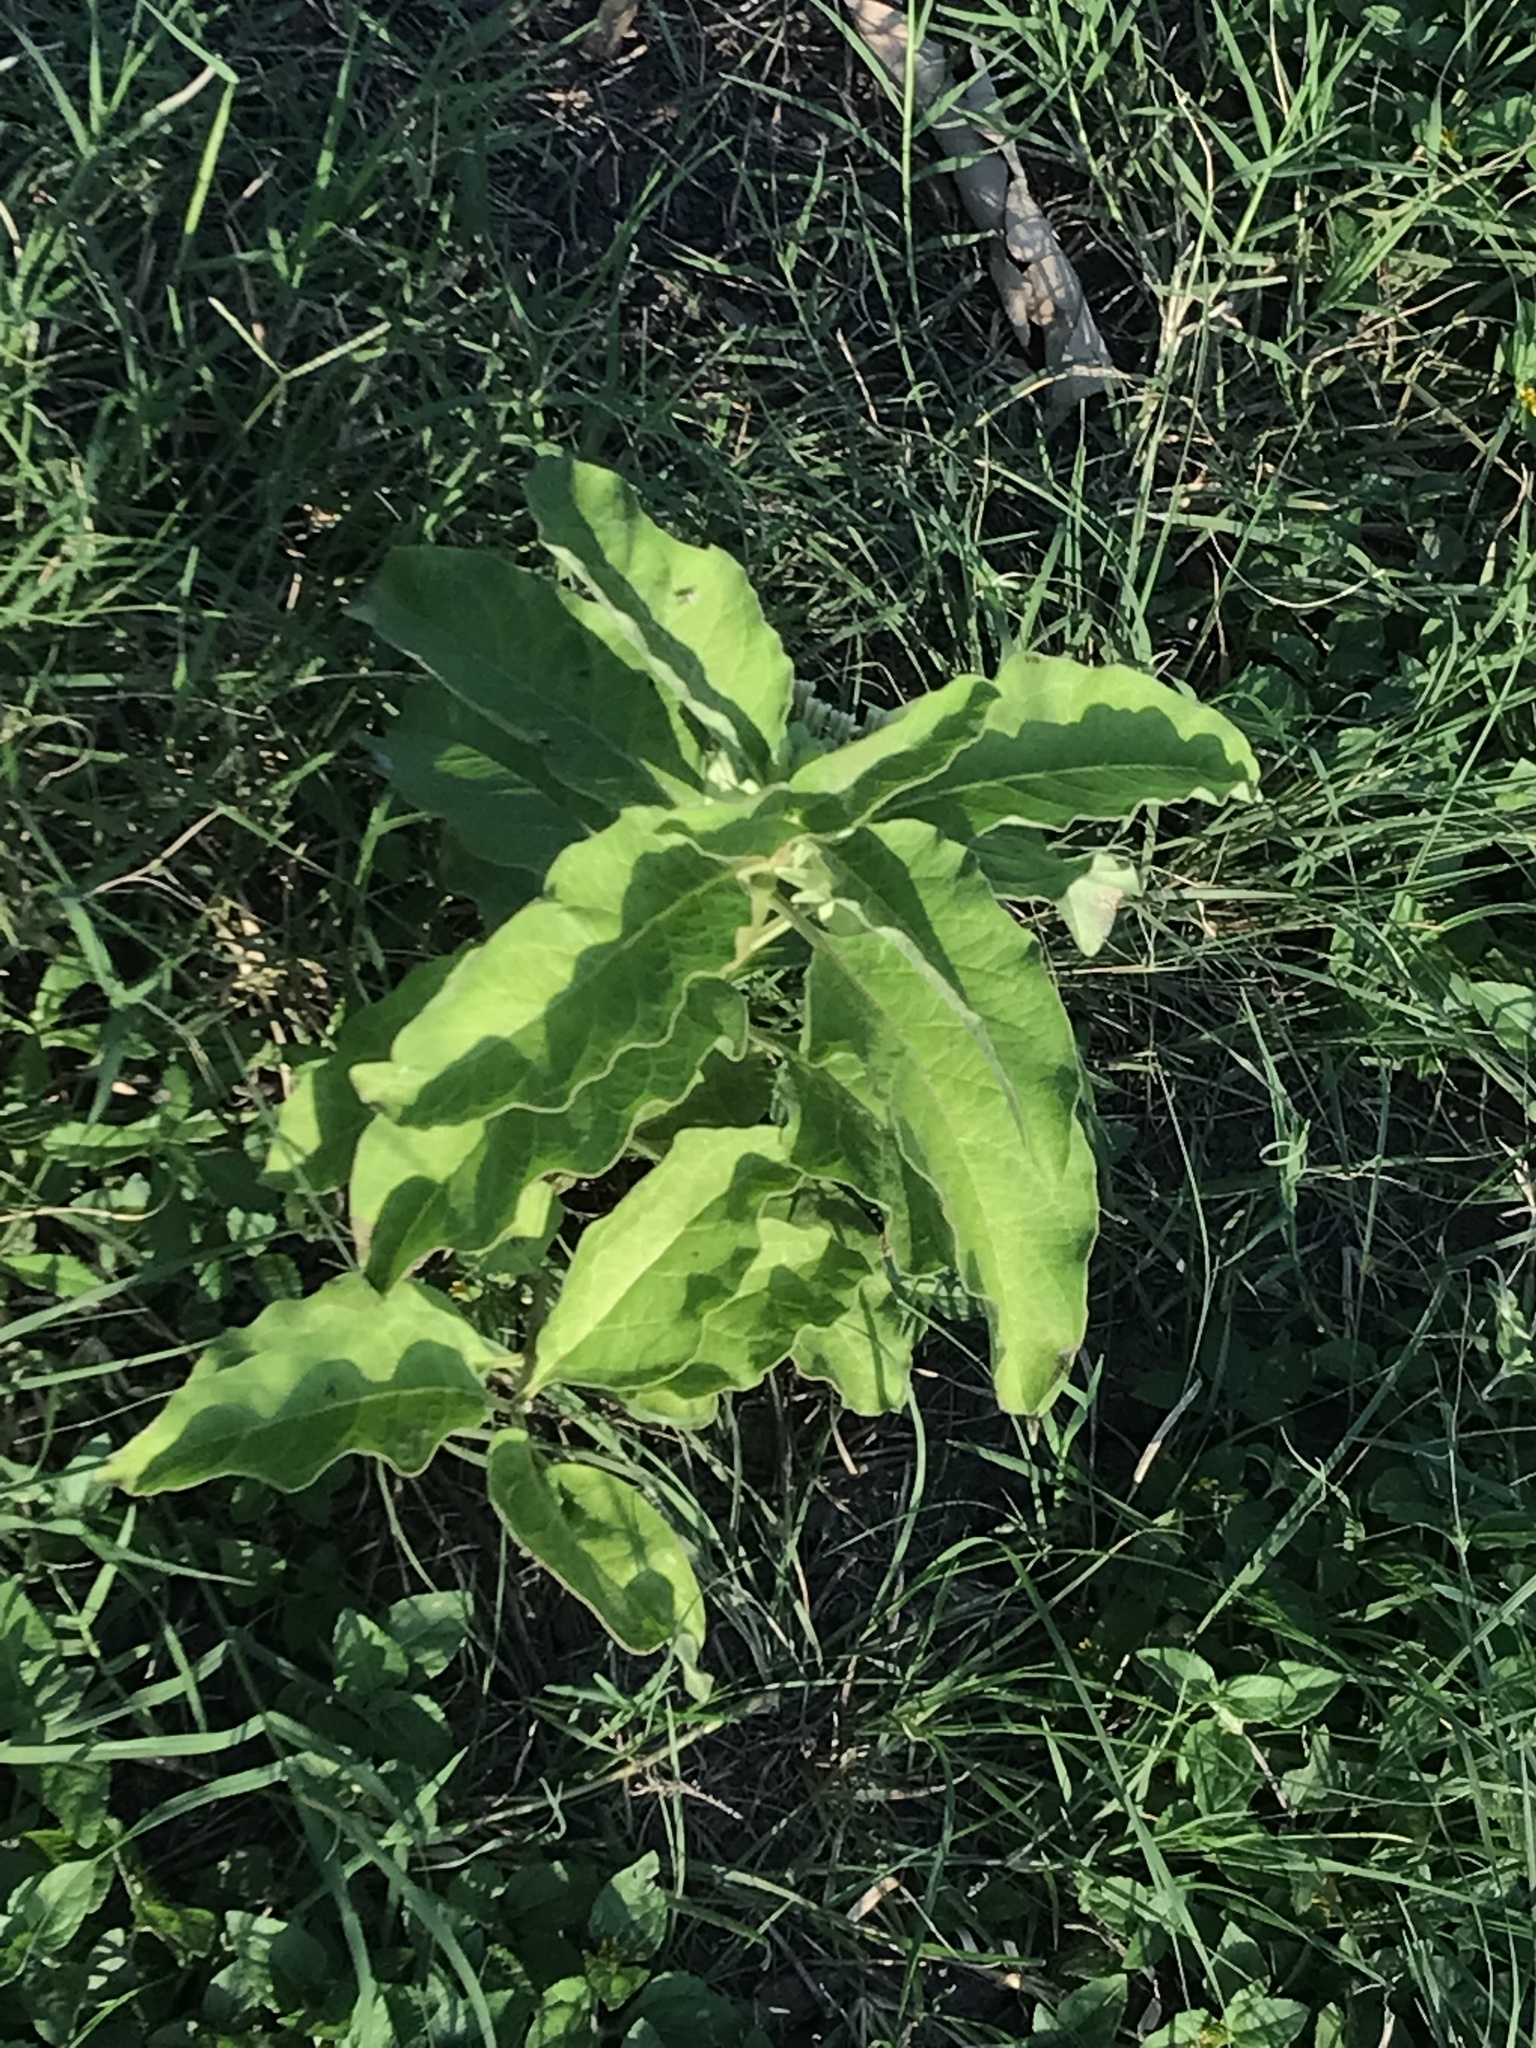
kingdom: Plantae
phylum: Tracheophyta
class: Magnoliopsida
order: Gentianales
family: Apocynaceae
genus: Asclepias
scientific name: Asclepias oenotheroides
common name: Zizotes milkweed
